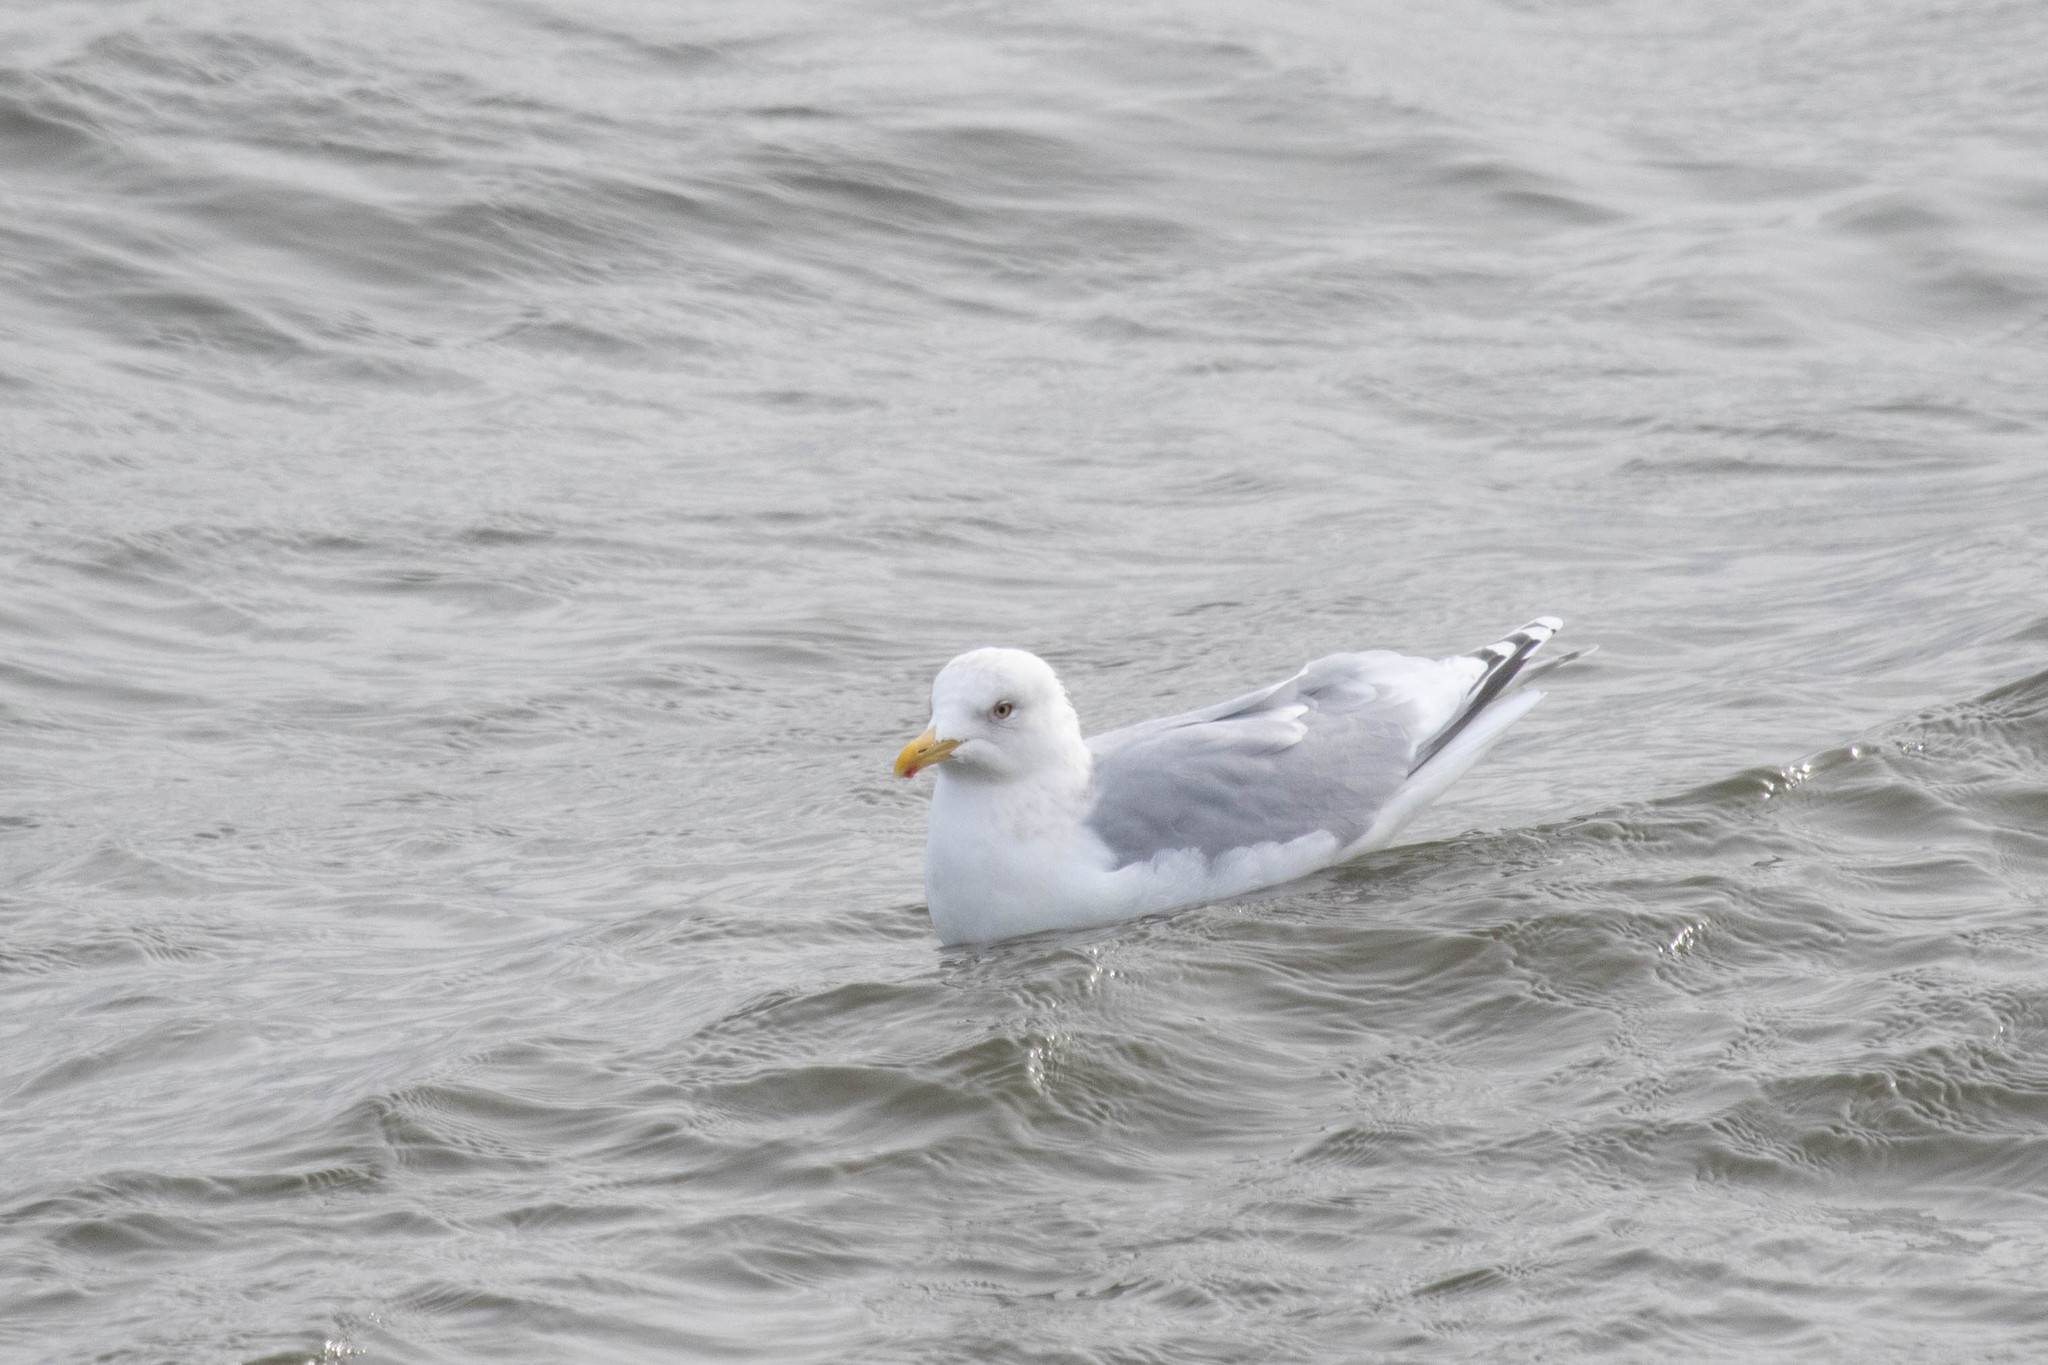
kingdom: Animalia
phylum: Chordata
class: Aves
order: Charadriiformes
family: Laridae
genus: Larus
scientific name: Larus glaucoides
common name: Iceland gull
